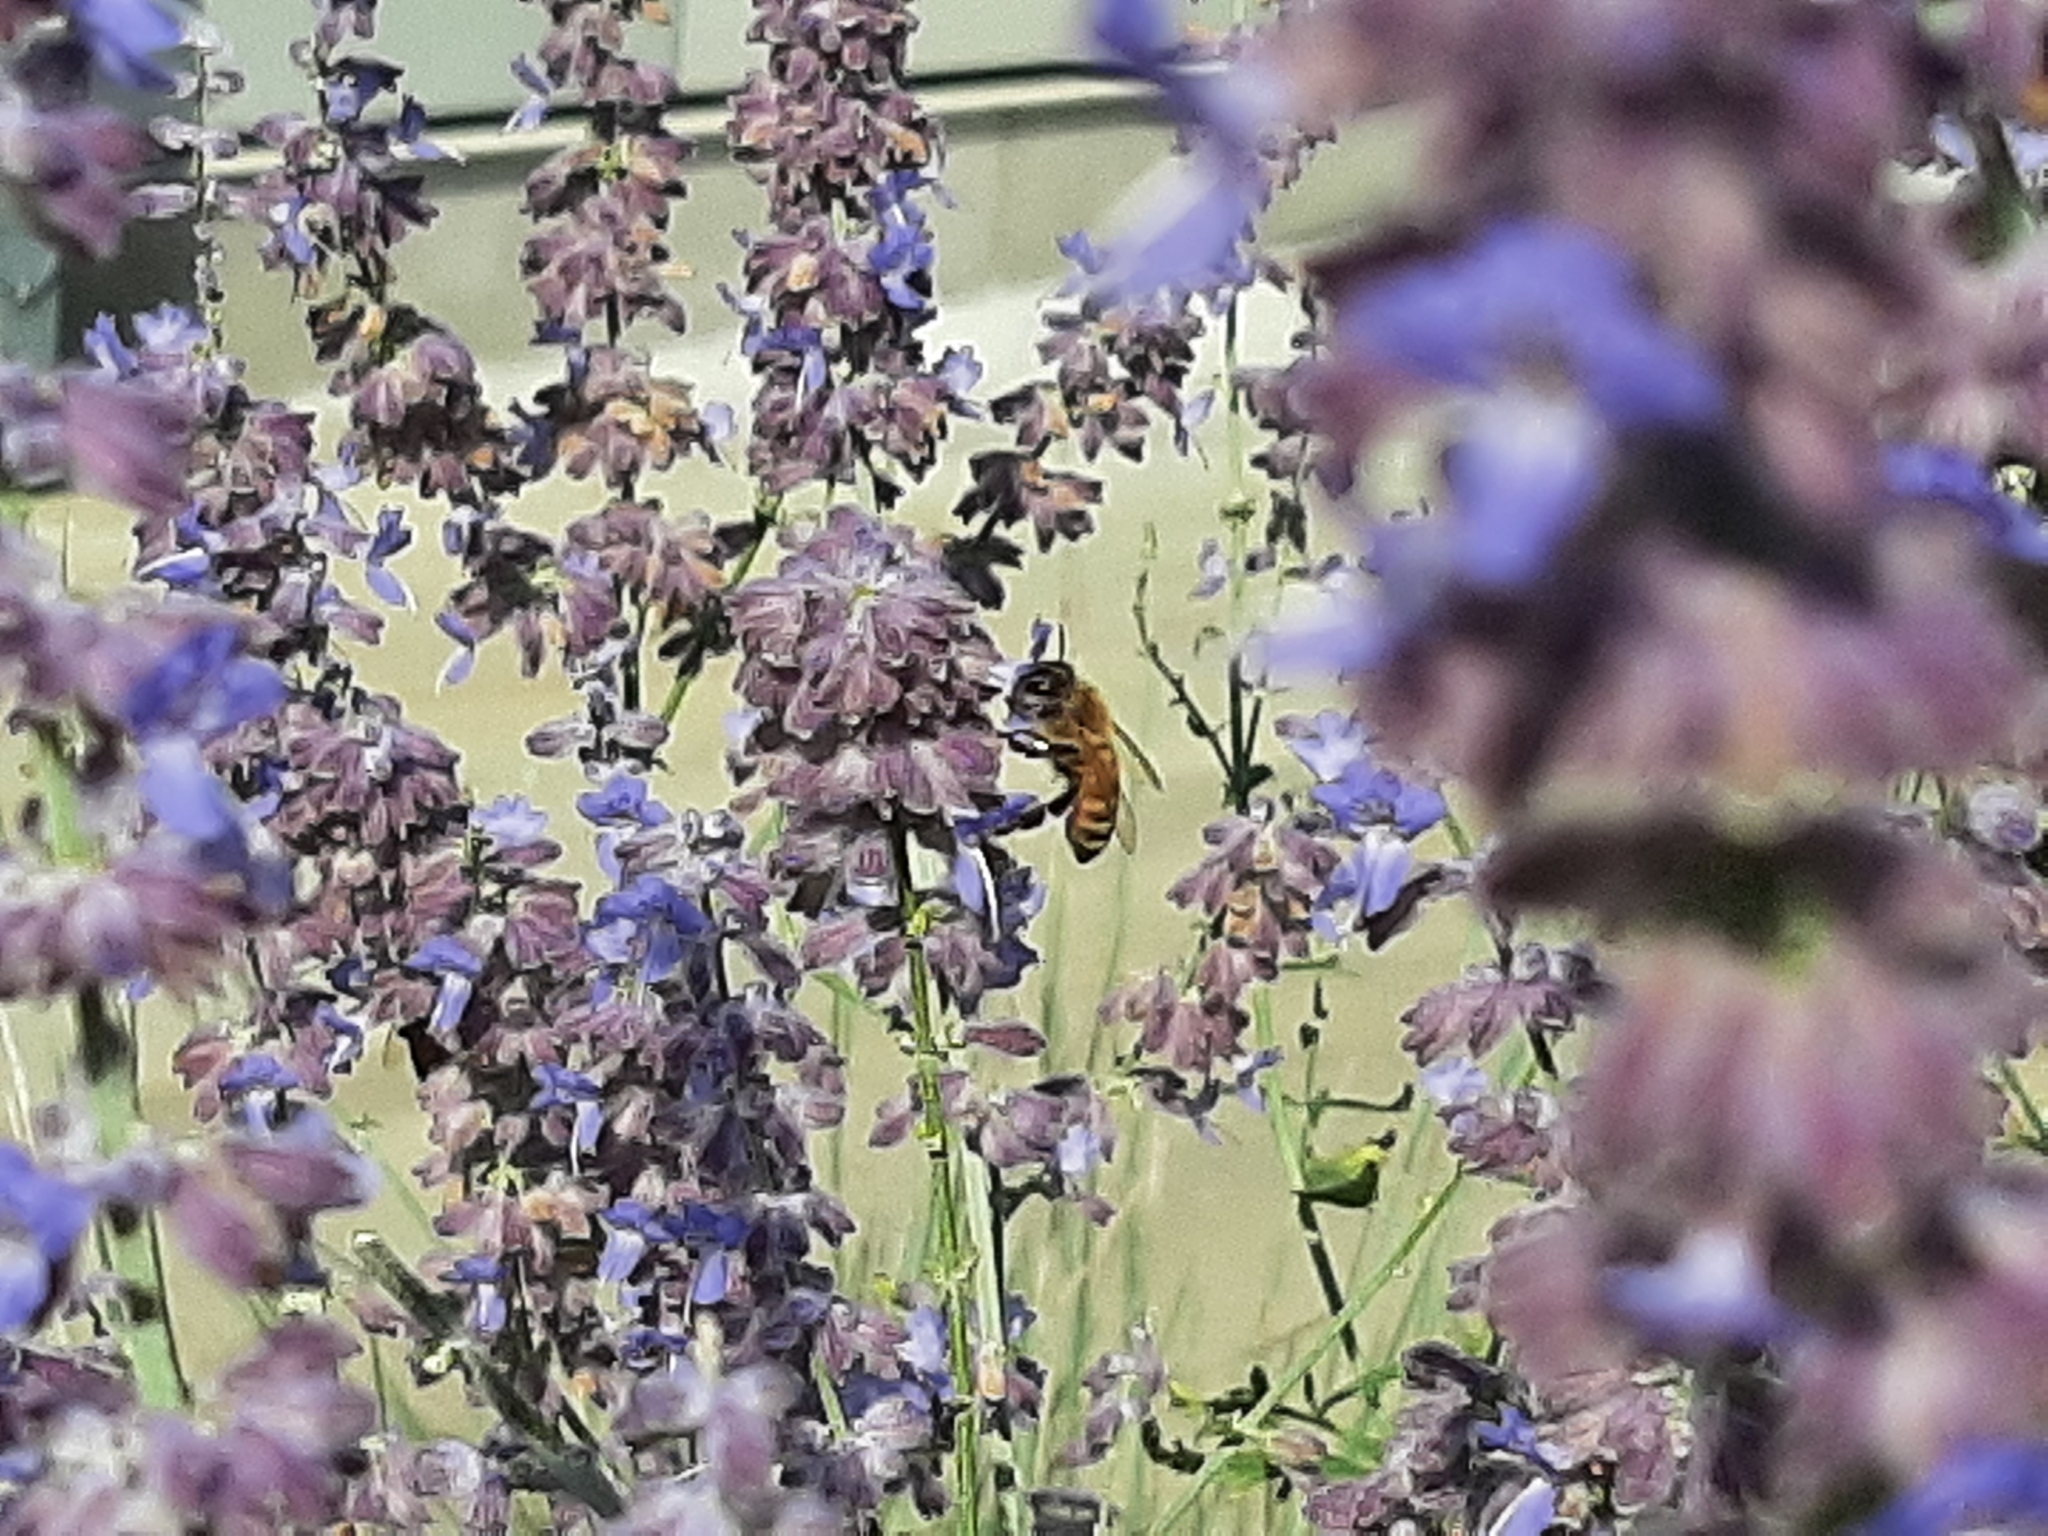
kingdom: Animalia
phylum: Arthropoda
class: Insecta
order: Hymenoptera
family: Apidae
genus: Apis
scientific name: Apis mellifera
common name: Honey bee
